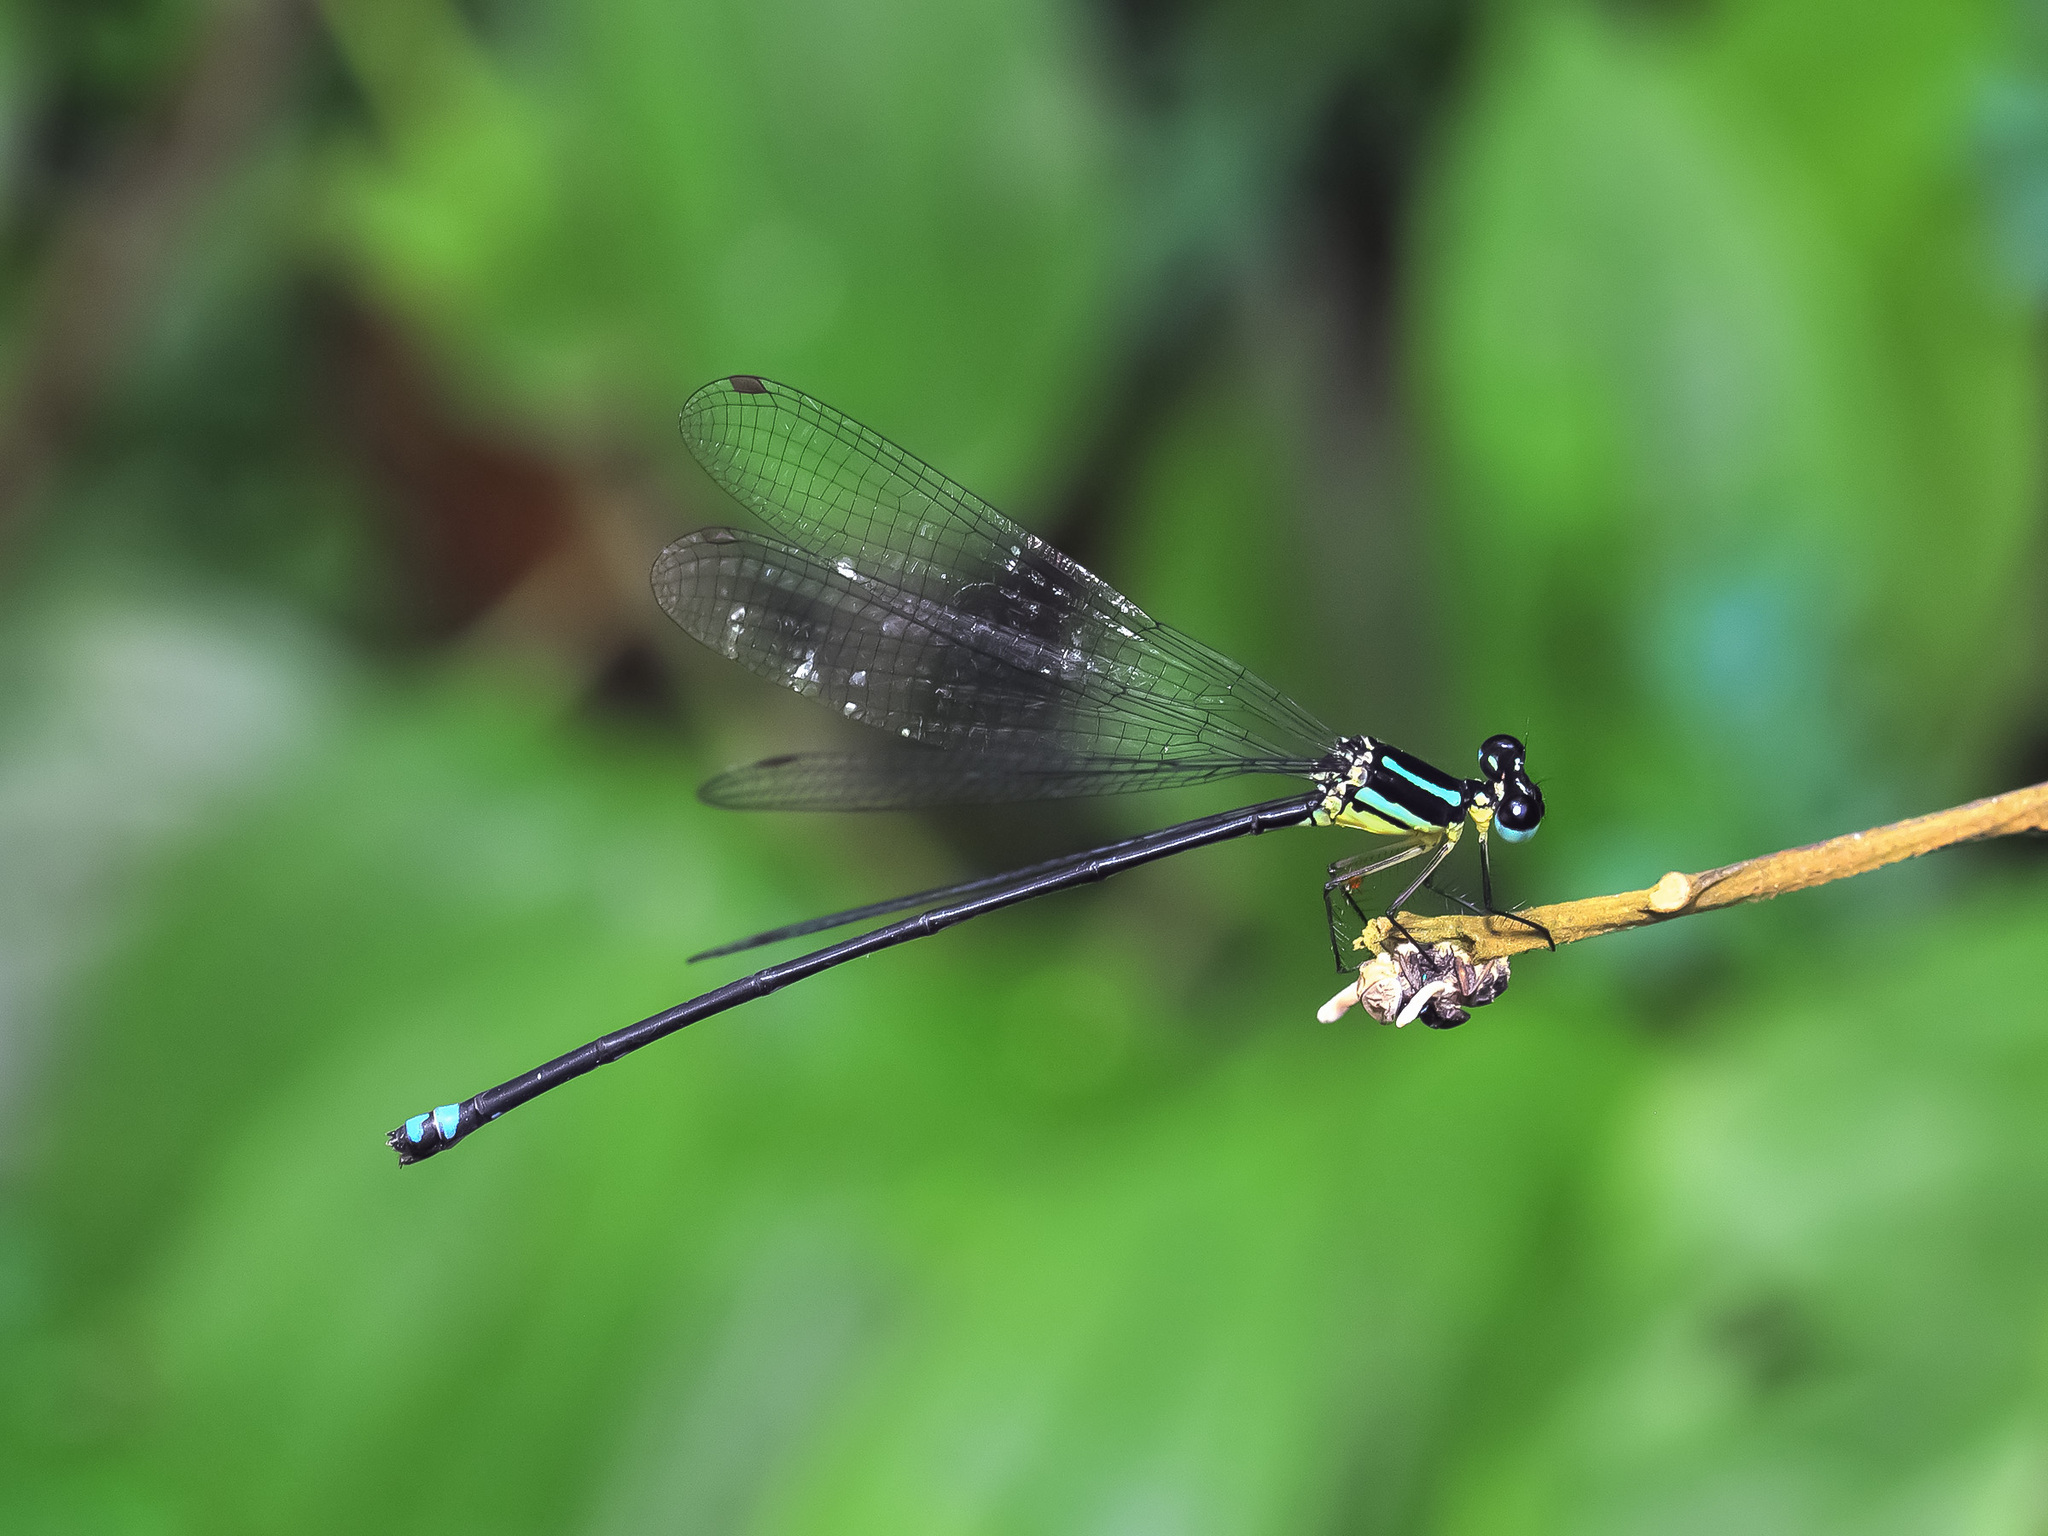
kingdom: Animalia
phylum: Arthropoda
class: Insecta
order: Odonata
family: Platycnemididae
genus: Indocnemis
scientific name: Indocnemis orang
